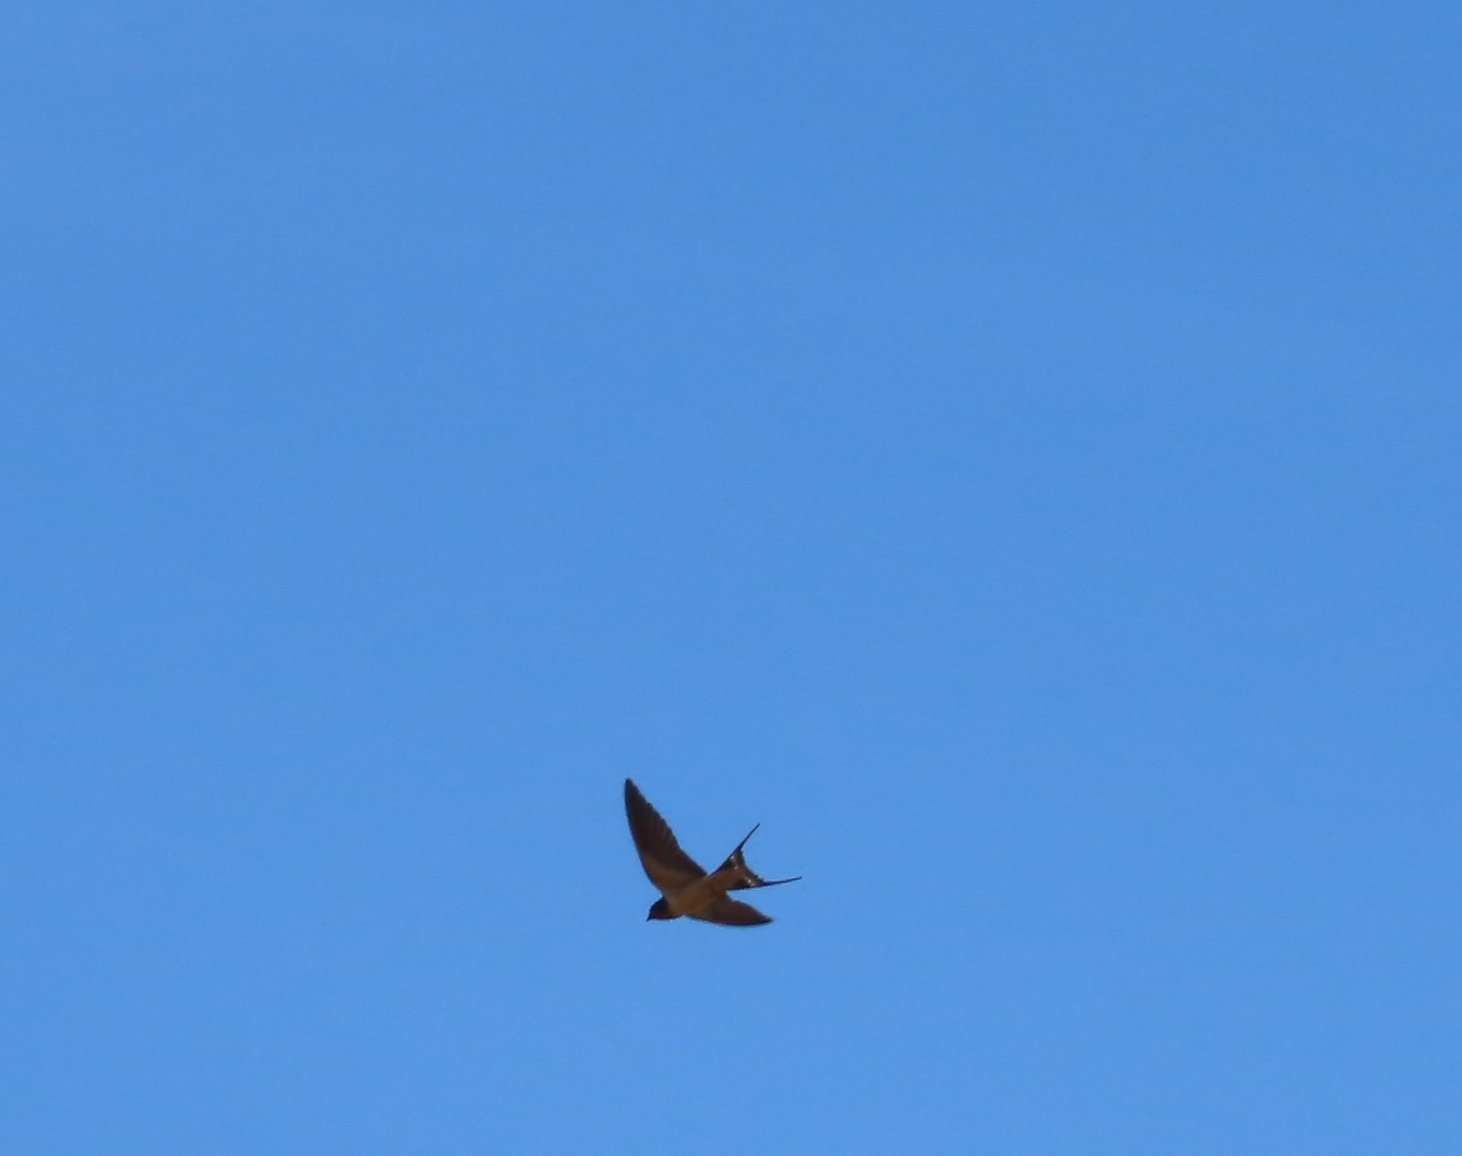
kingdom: Animalia
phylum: Chordata
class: Aves
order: Passeriformes
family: Hirundinidae
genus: Hirundo
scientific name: Hirundo rustica
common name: Barn swallow
